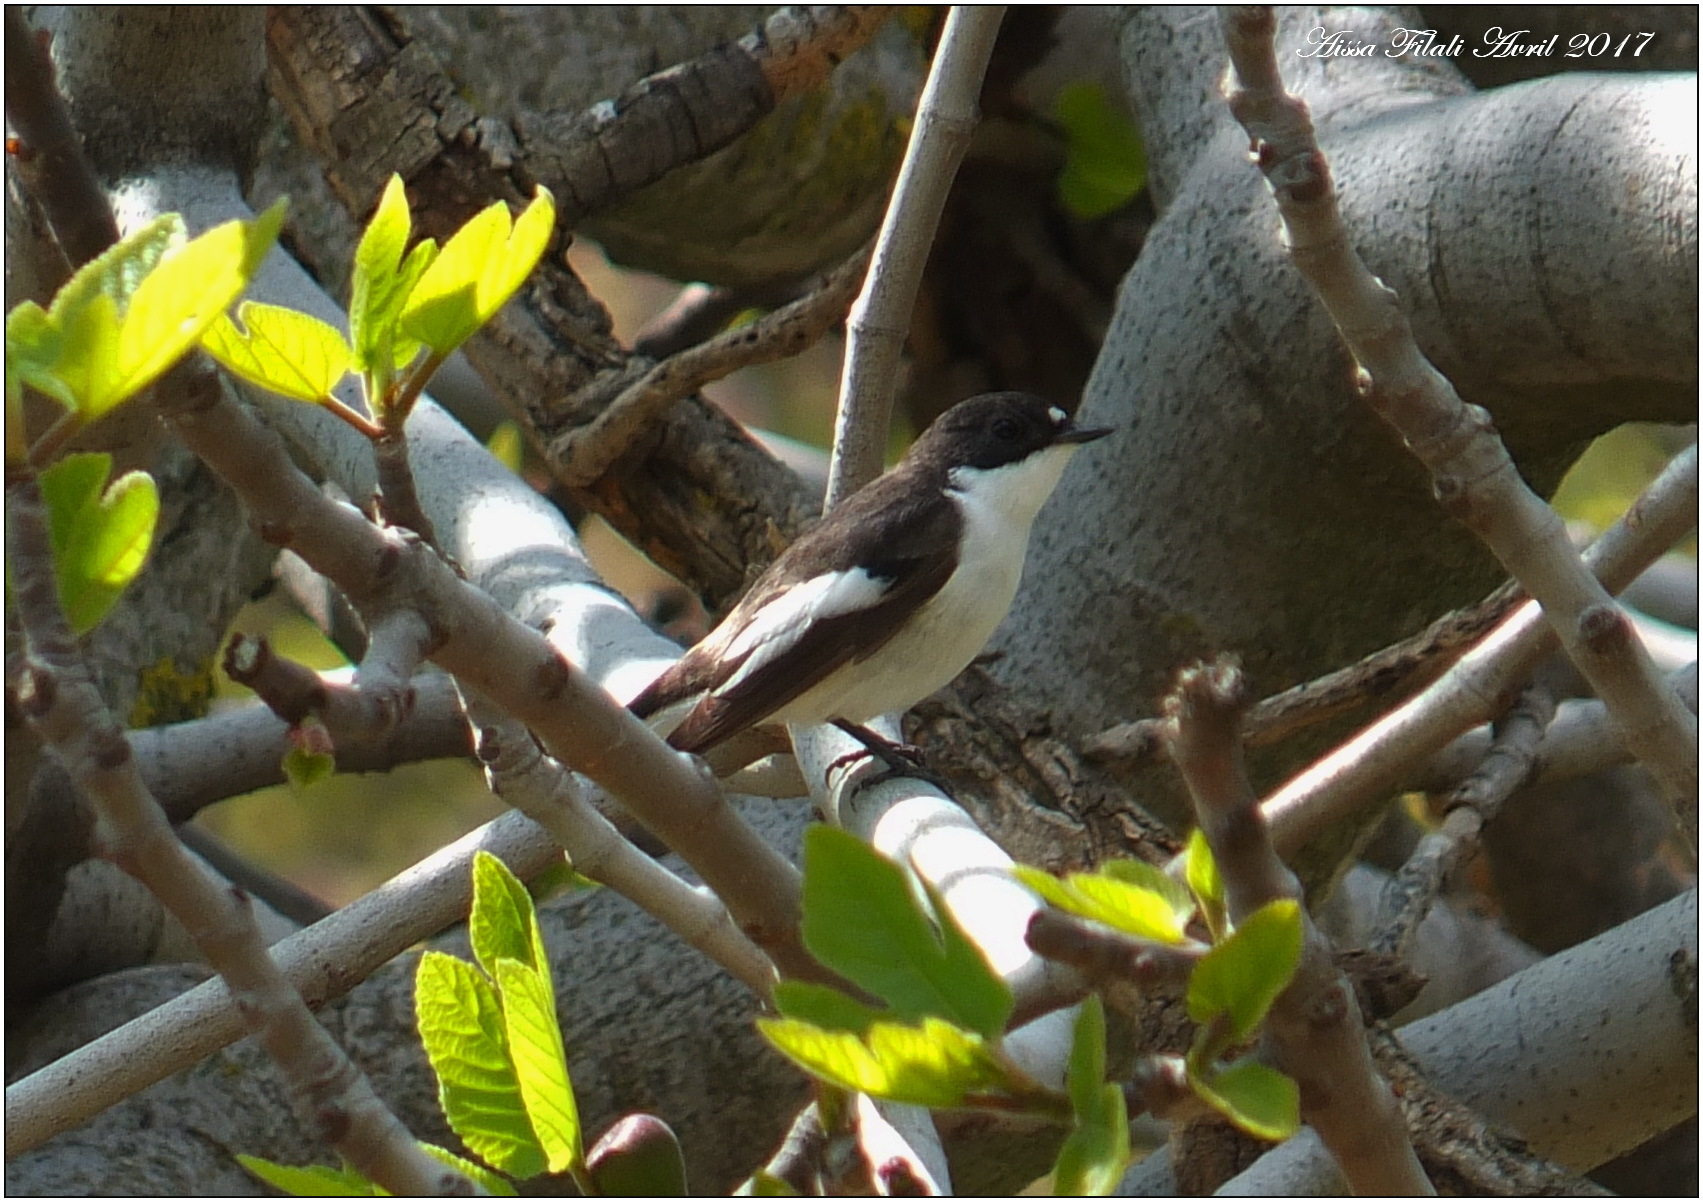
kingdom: Animalia
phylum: Chordata
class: Aves
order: Passeriformes
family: Muscicapidae
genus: Ficedula
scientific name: Ficedula hypoleuca
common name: European pied flycatcher
